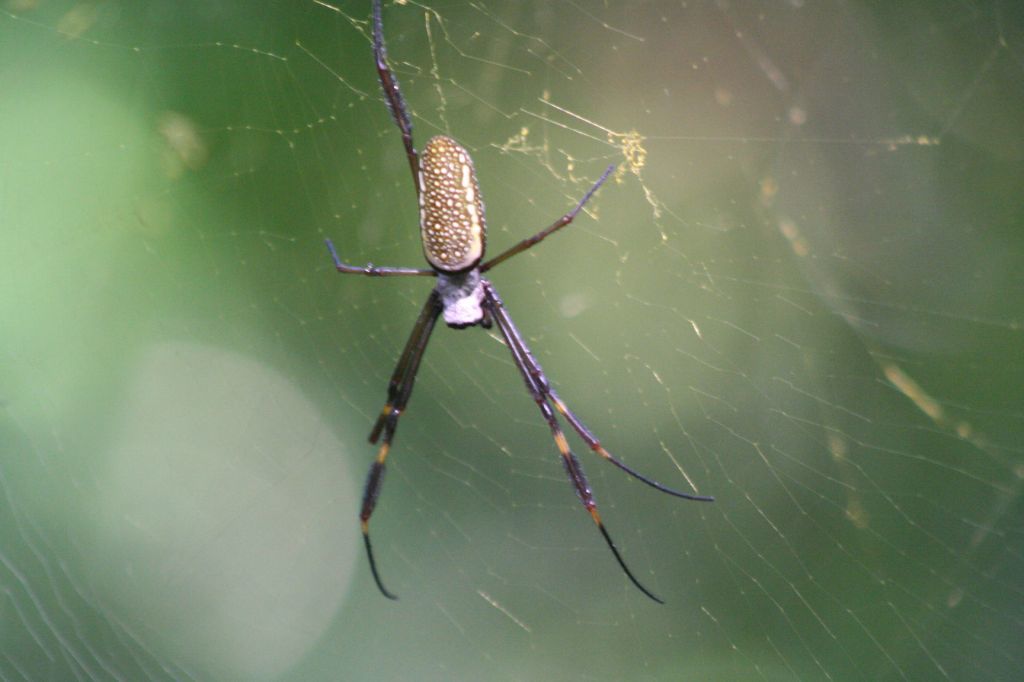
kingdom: Animalia
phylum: Arthropoda
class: Arachnida
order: Araneae
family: Araneidae
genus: Trichonephila
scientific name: Trichonephila clavipes
